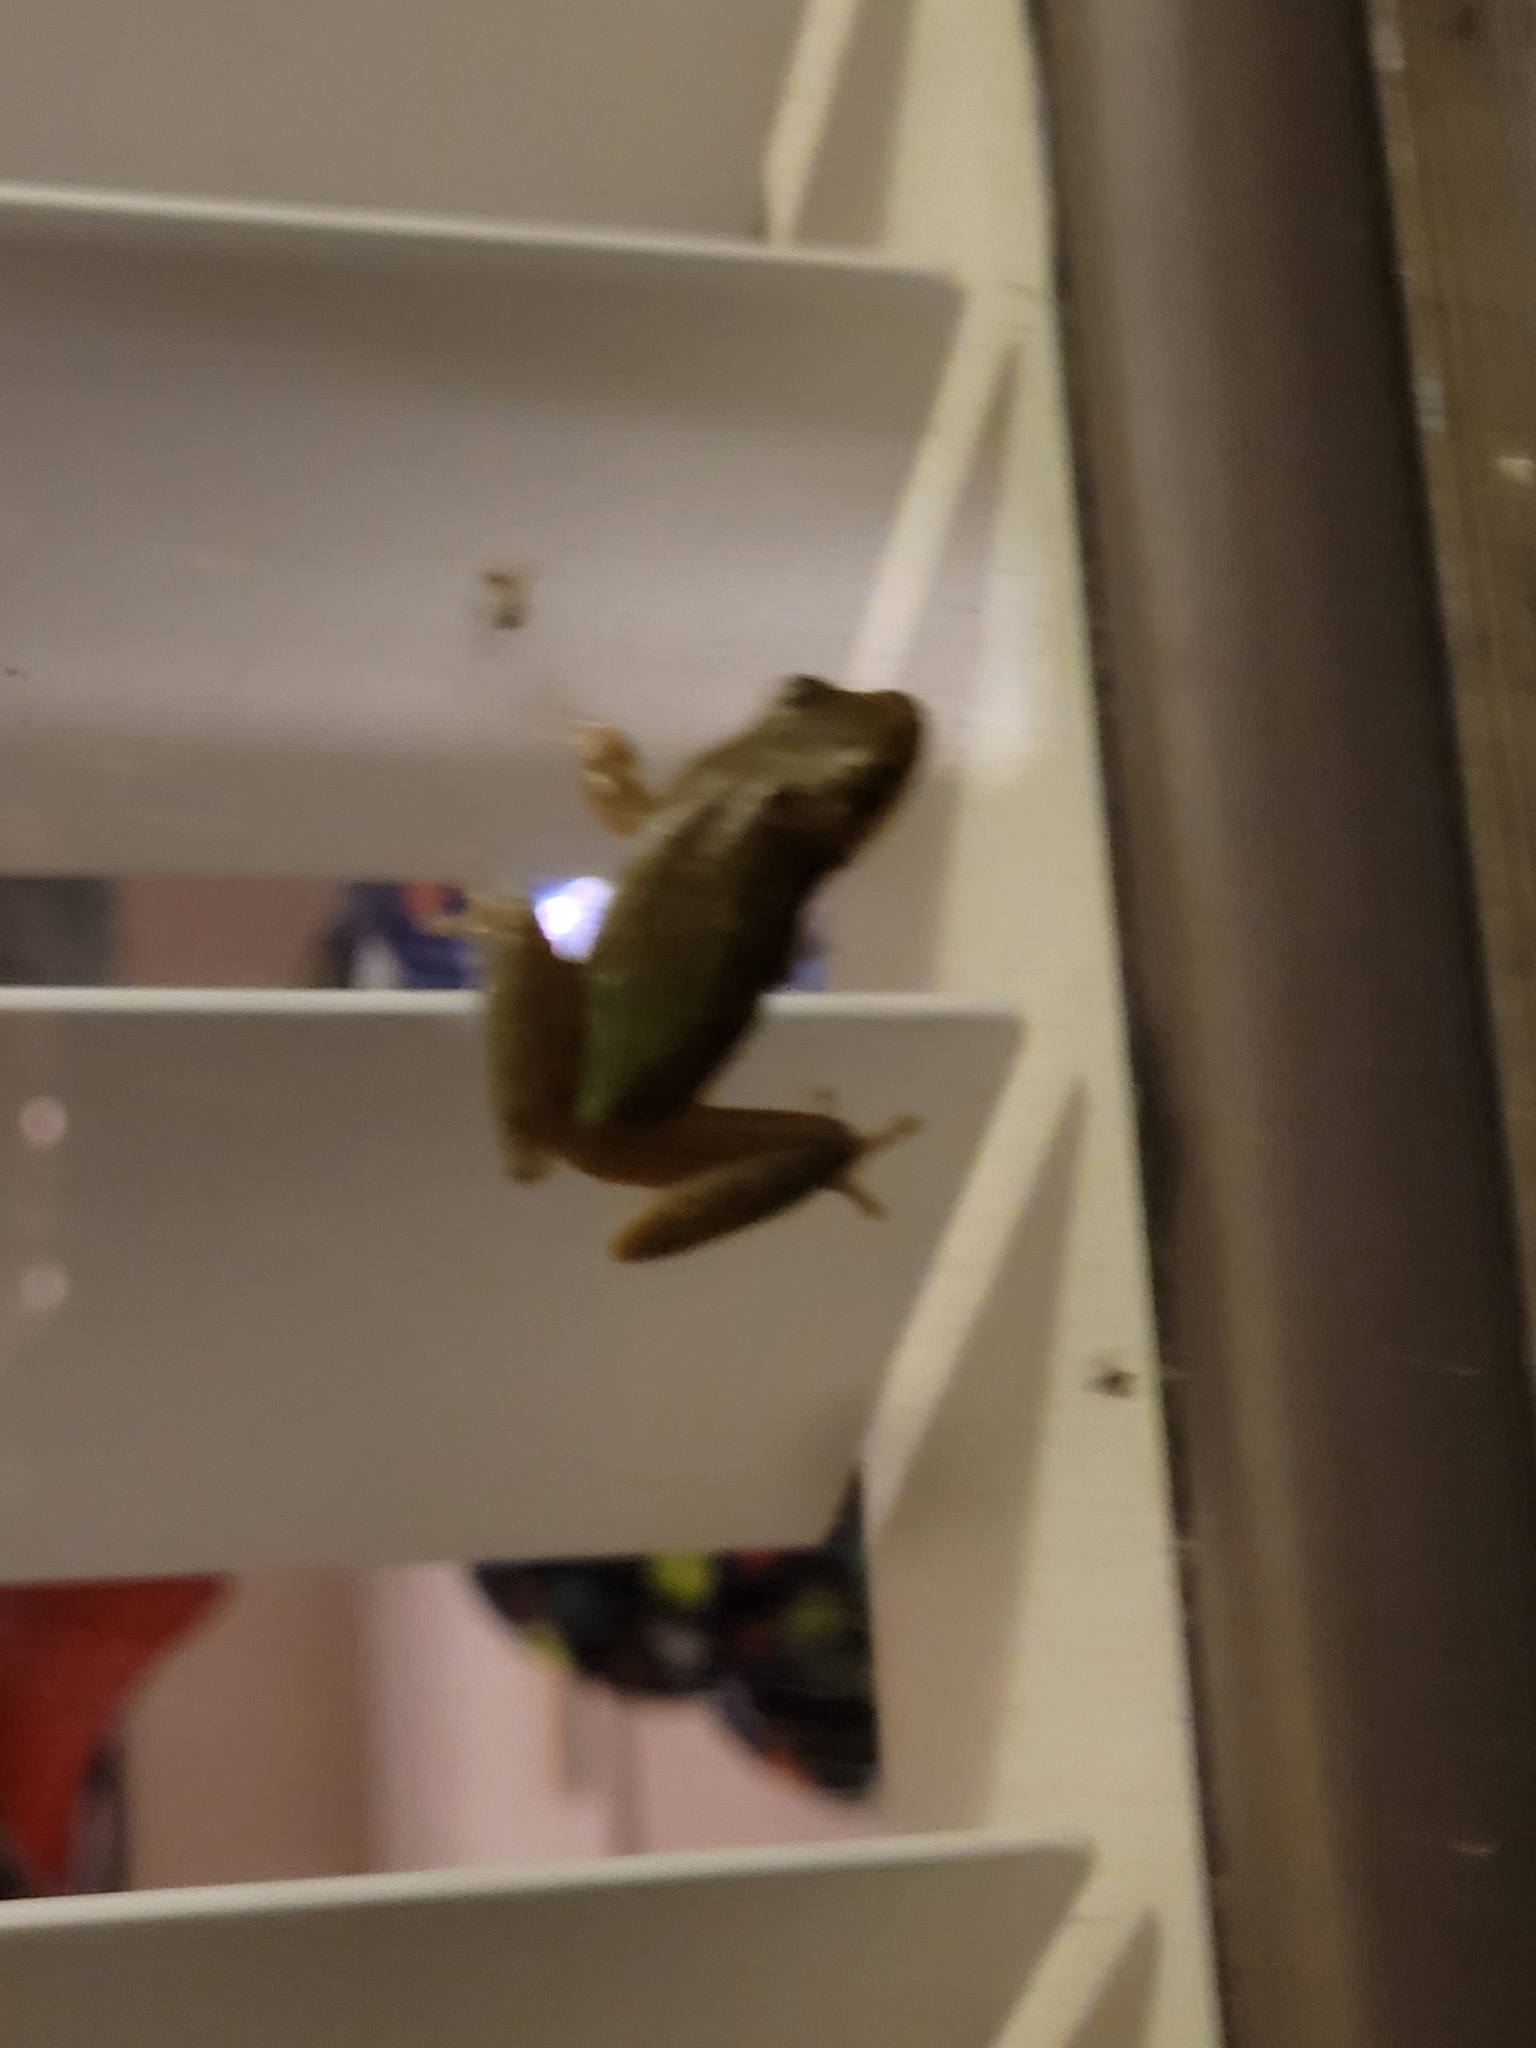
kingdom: Animalia
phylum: Chordata
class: Amphibia
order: Anura
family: Hylidae
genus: Dryophytes
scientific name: Dryophytes squirellus
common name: Squirrel treefrog
